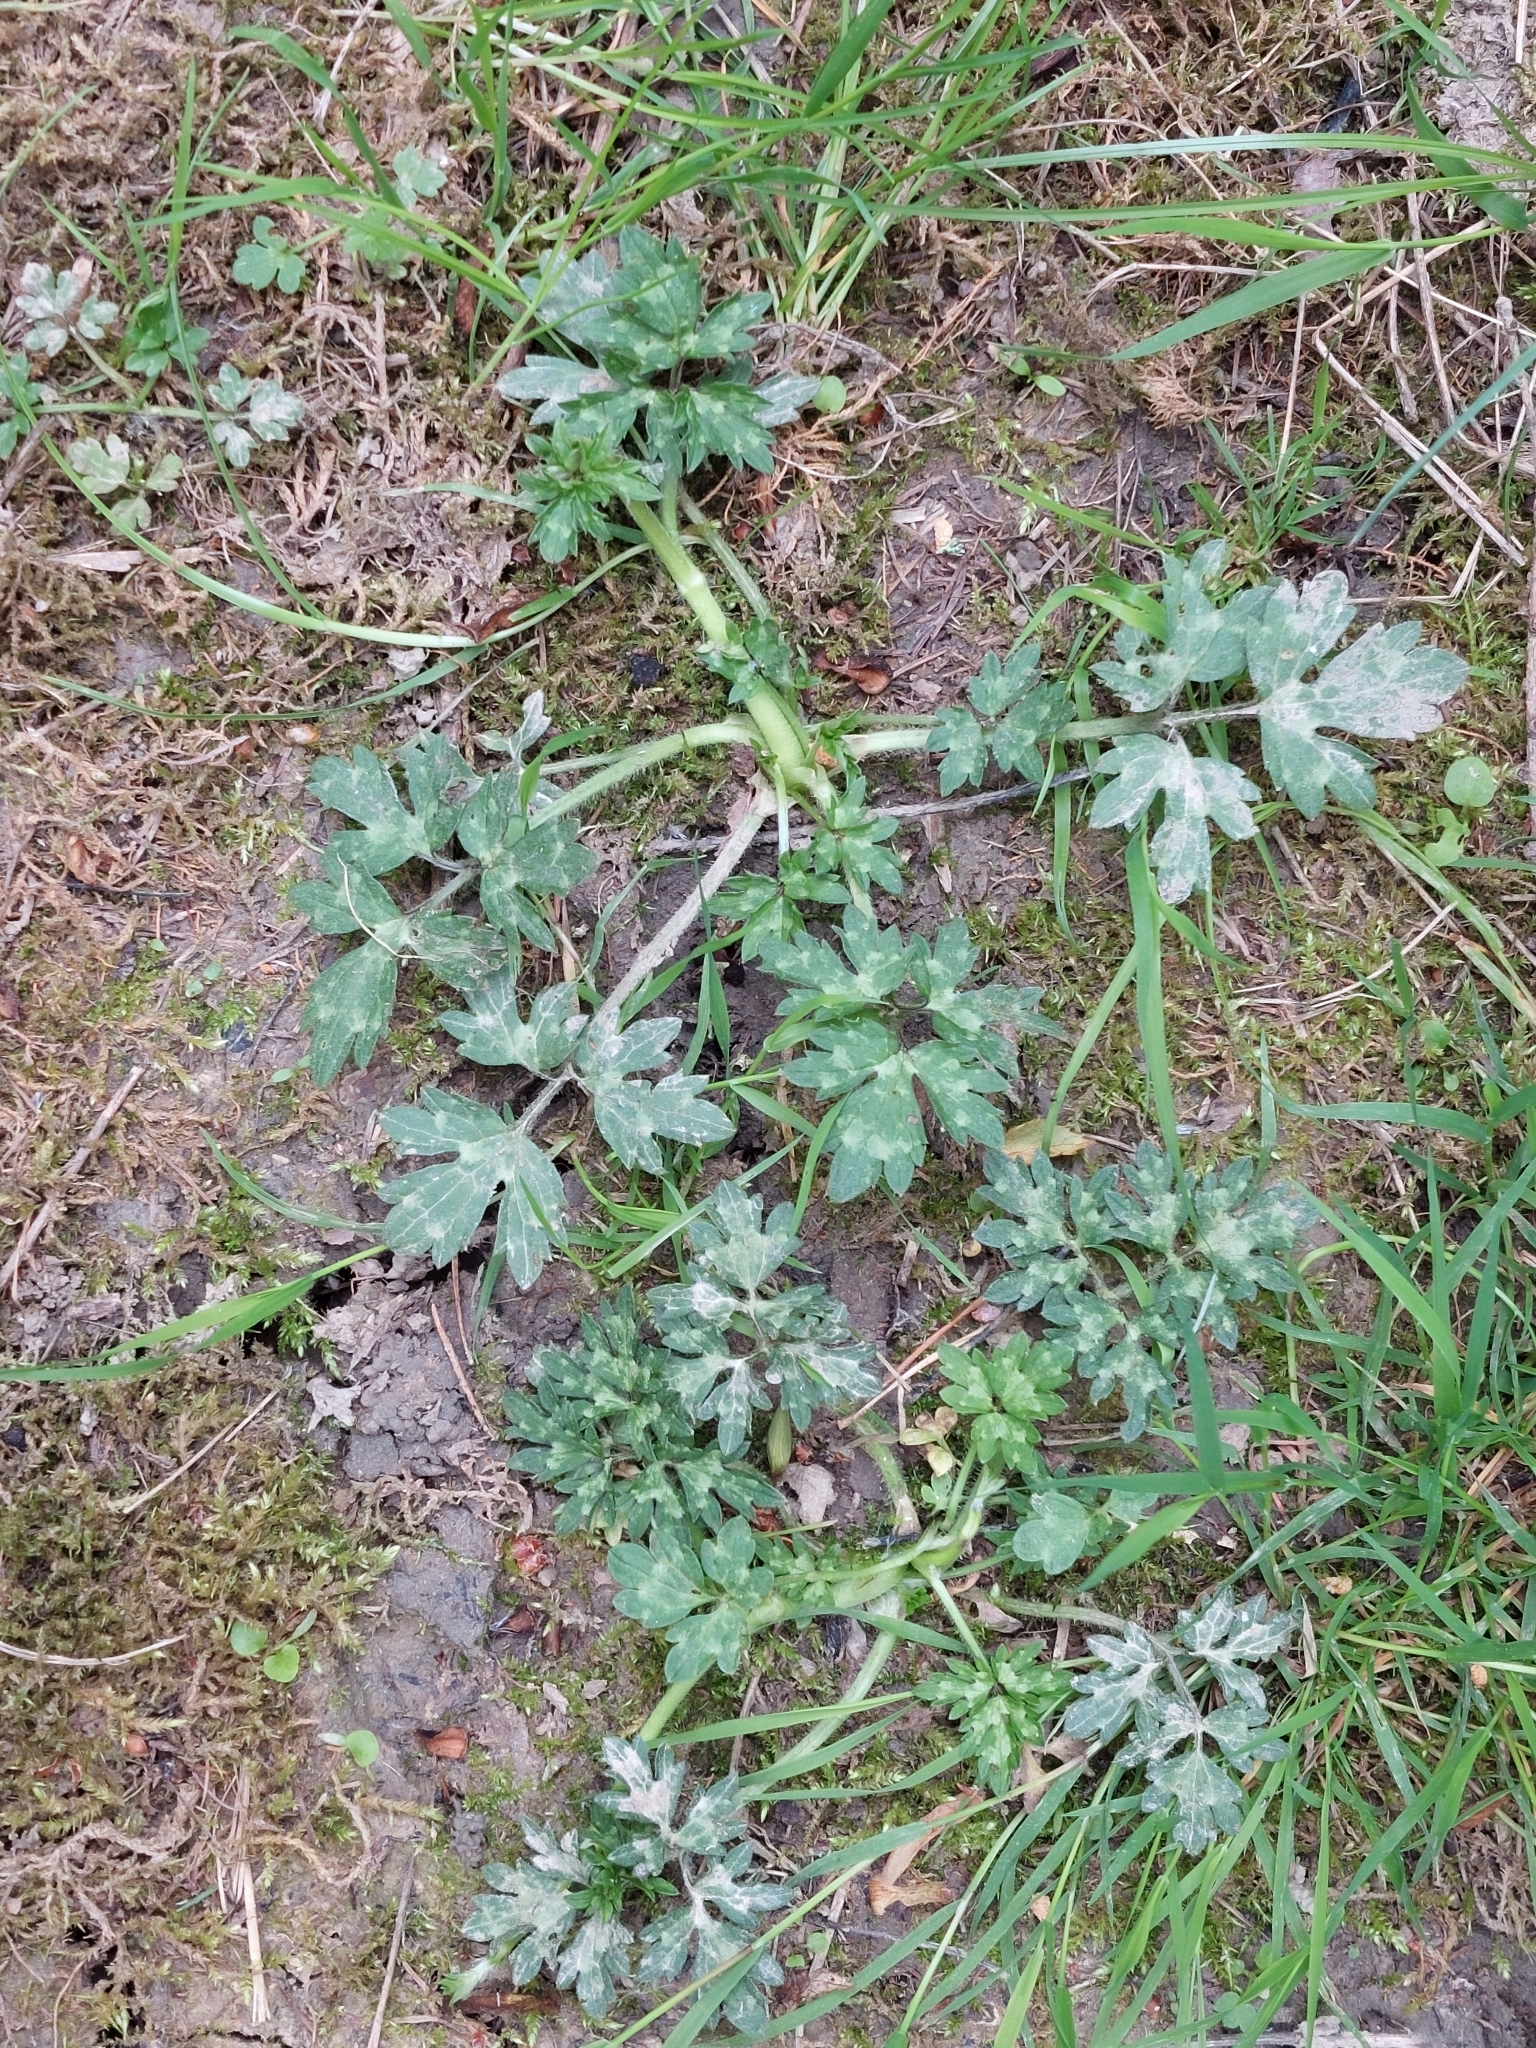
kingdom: Plantae
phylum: Tracheophyta
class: Magnoliopsida
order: Ranunculales
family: Ranunculaceae
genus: Ranunculus
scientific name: Ranunculus repens
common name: Creeping buttercup
